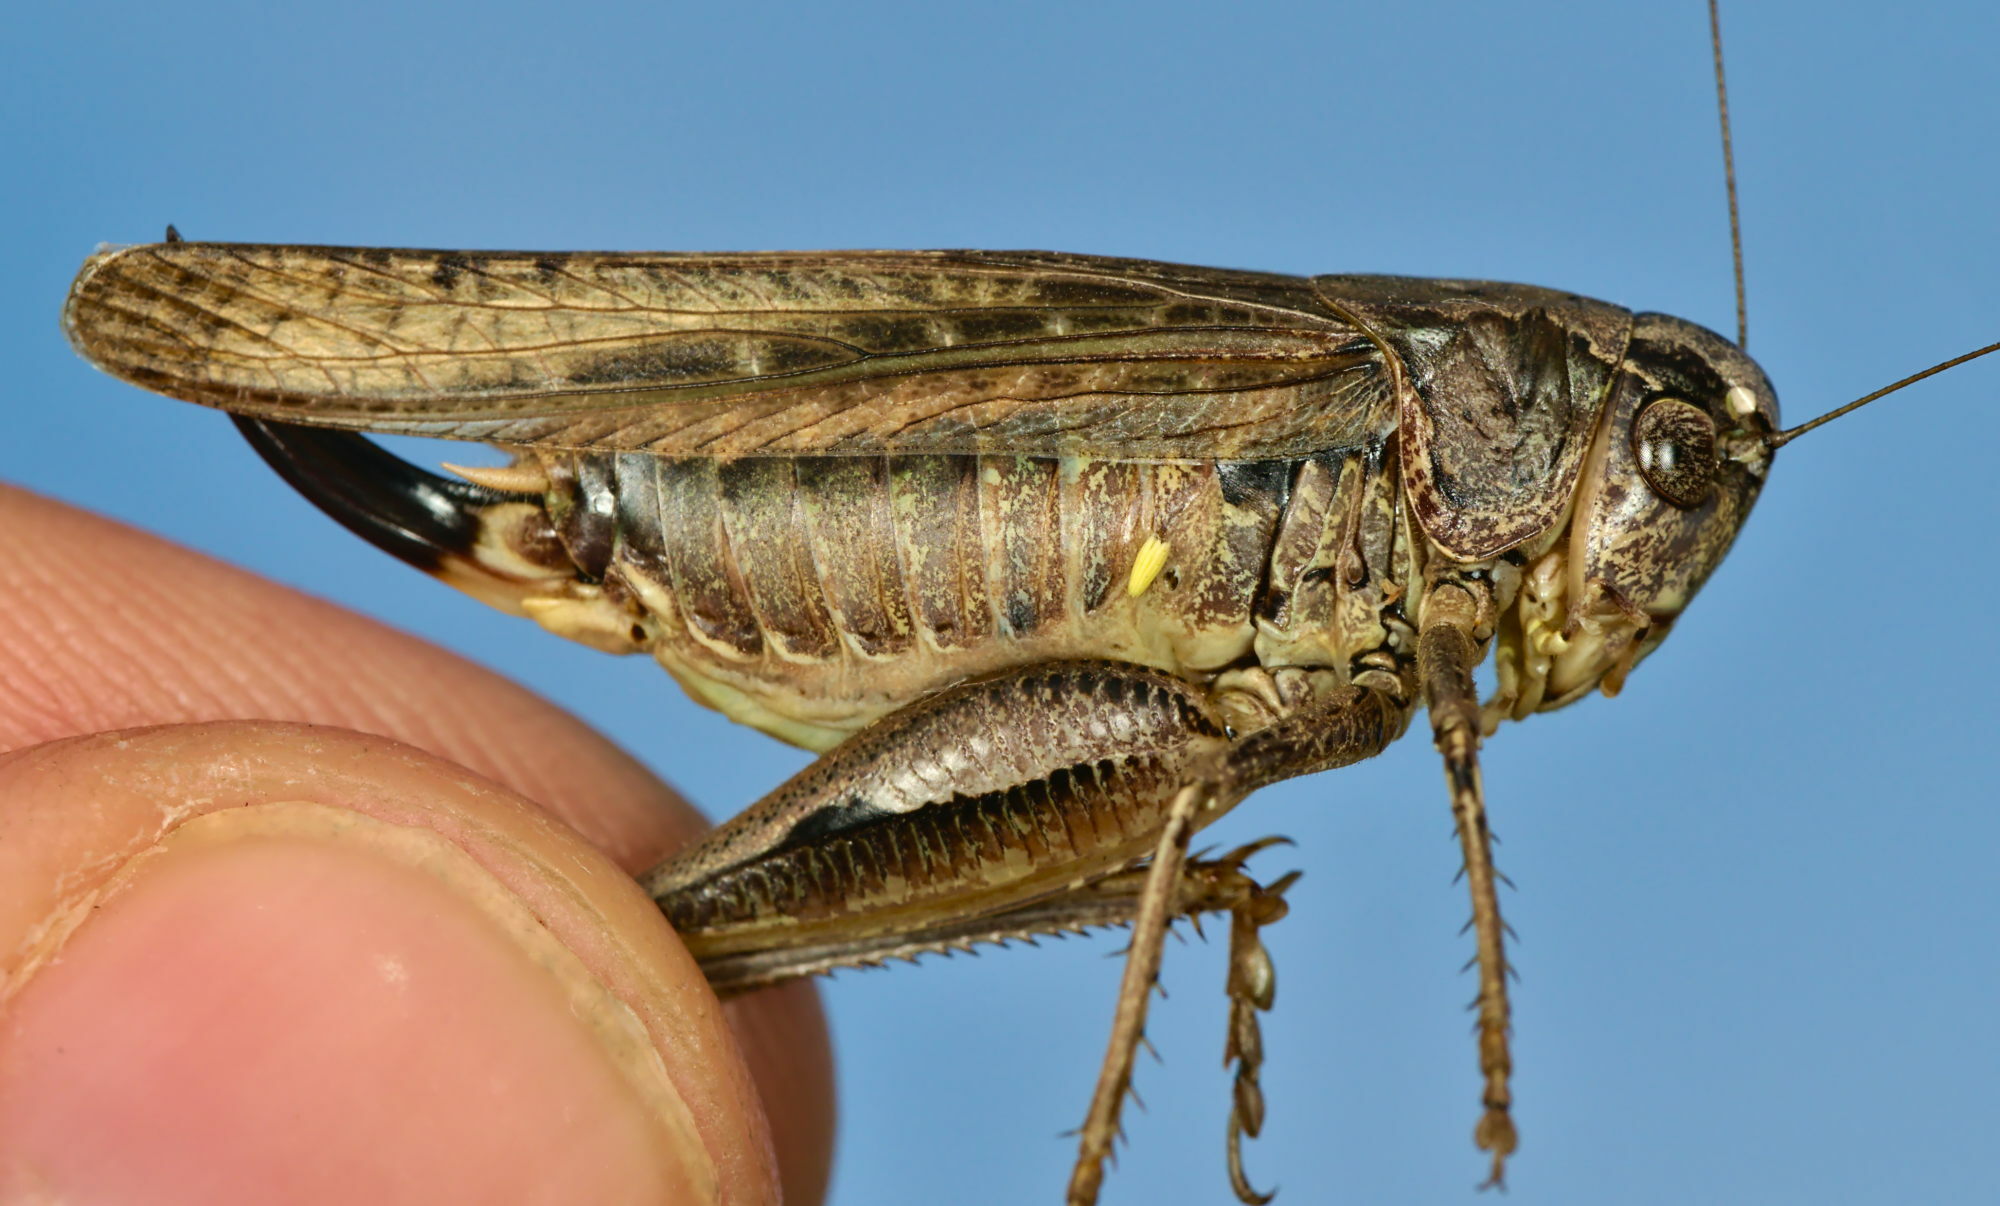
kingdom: Animalia
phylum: Arthropoda
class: Insecta
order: Orthoptera
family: Tettigoniidae
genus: Platycleis
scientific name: Platycleis albopunctata
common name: Grey bush-cricket
